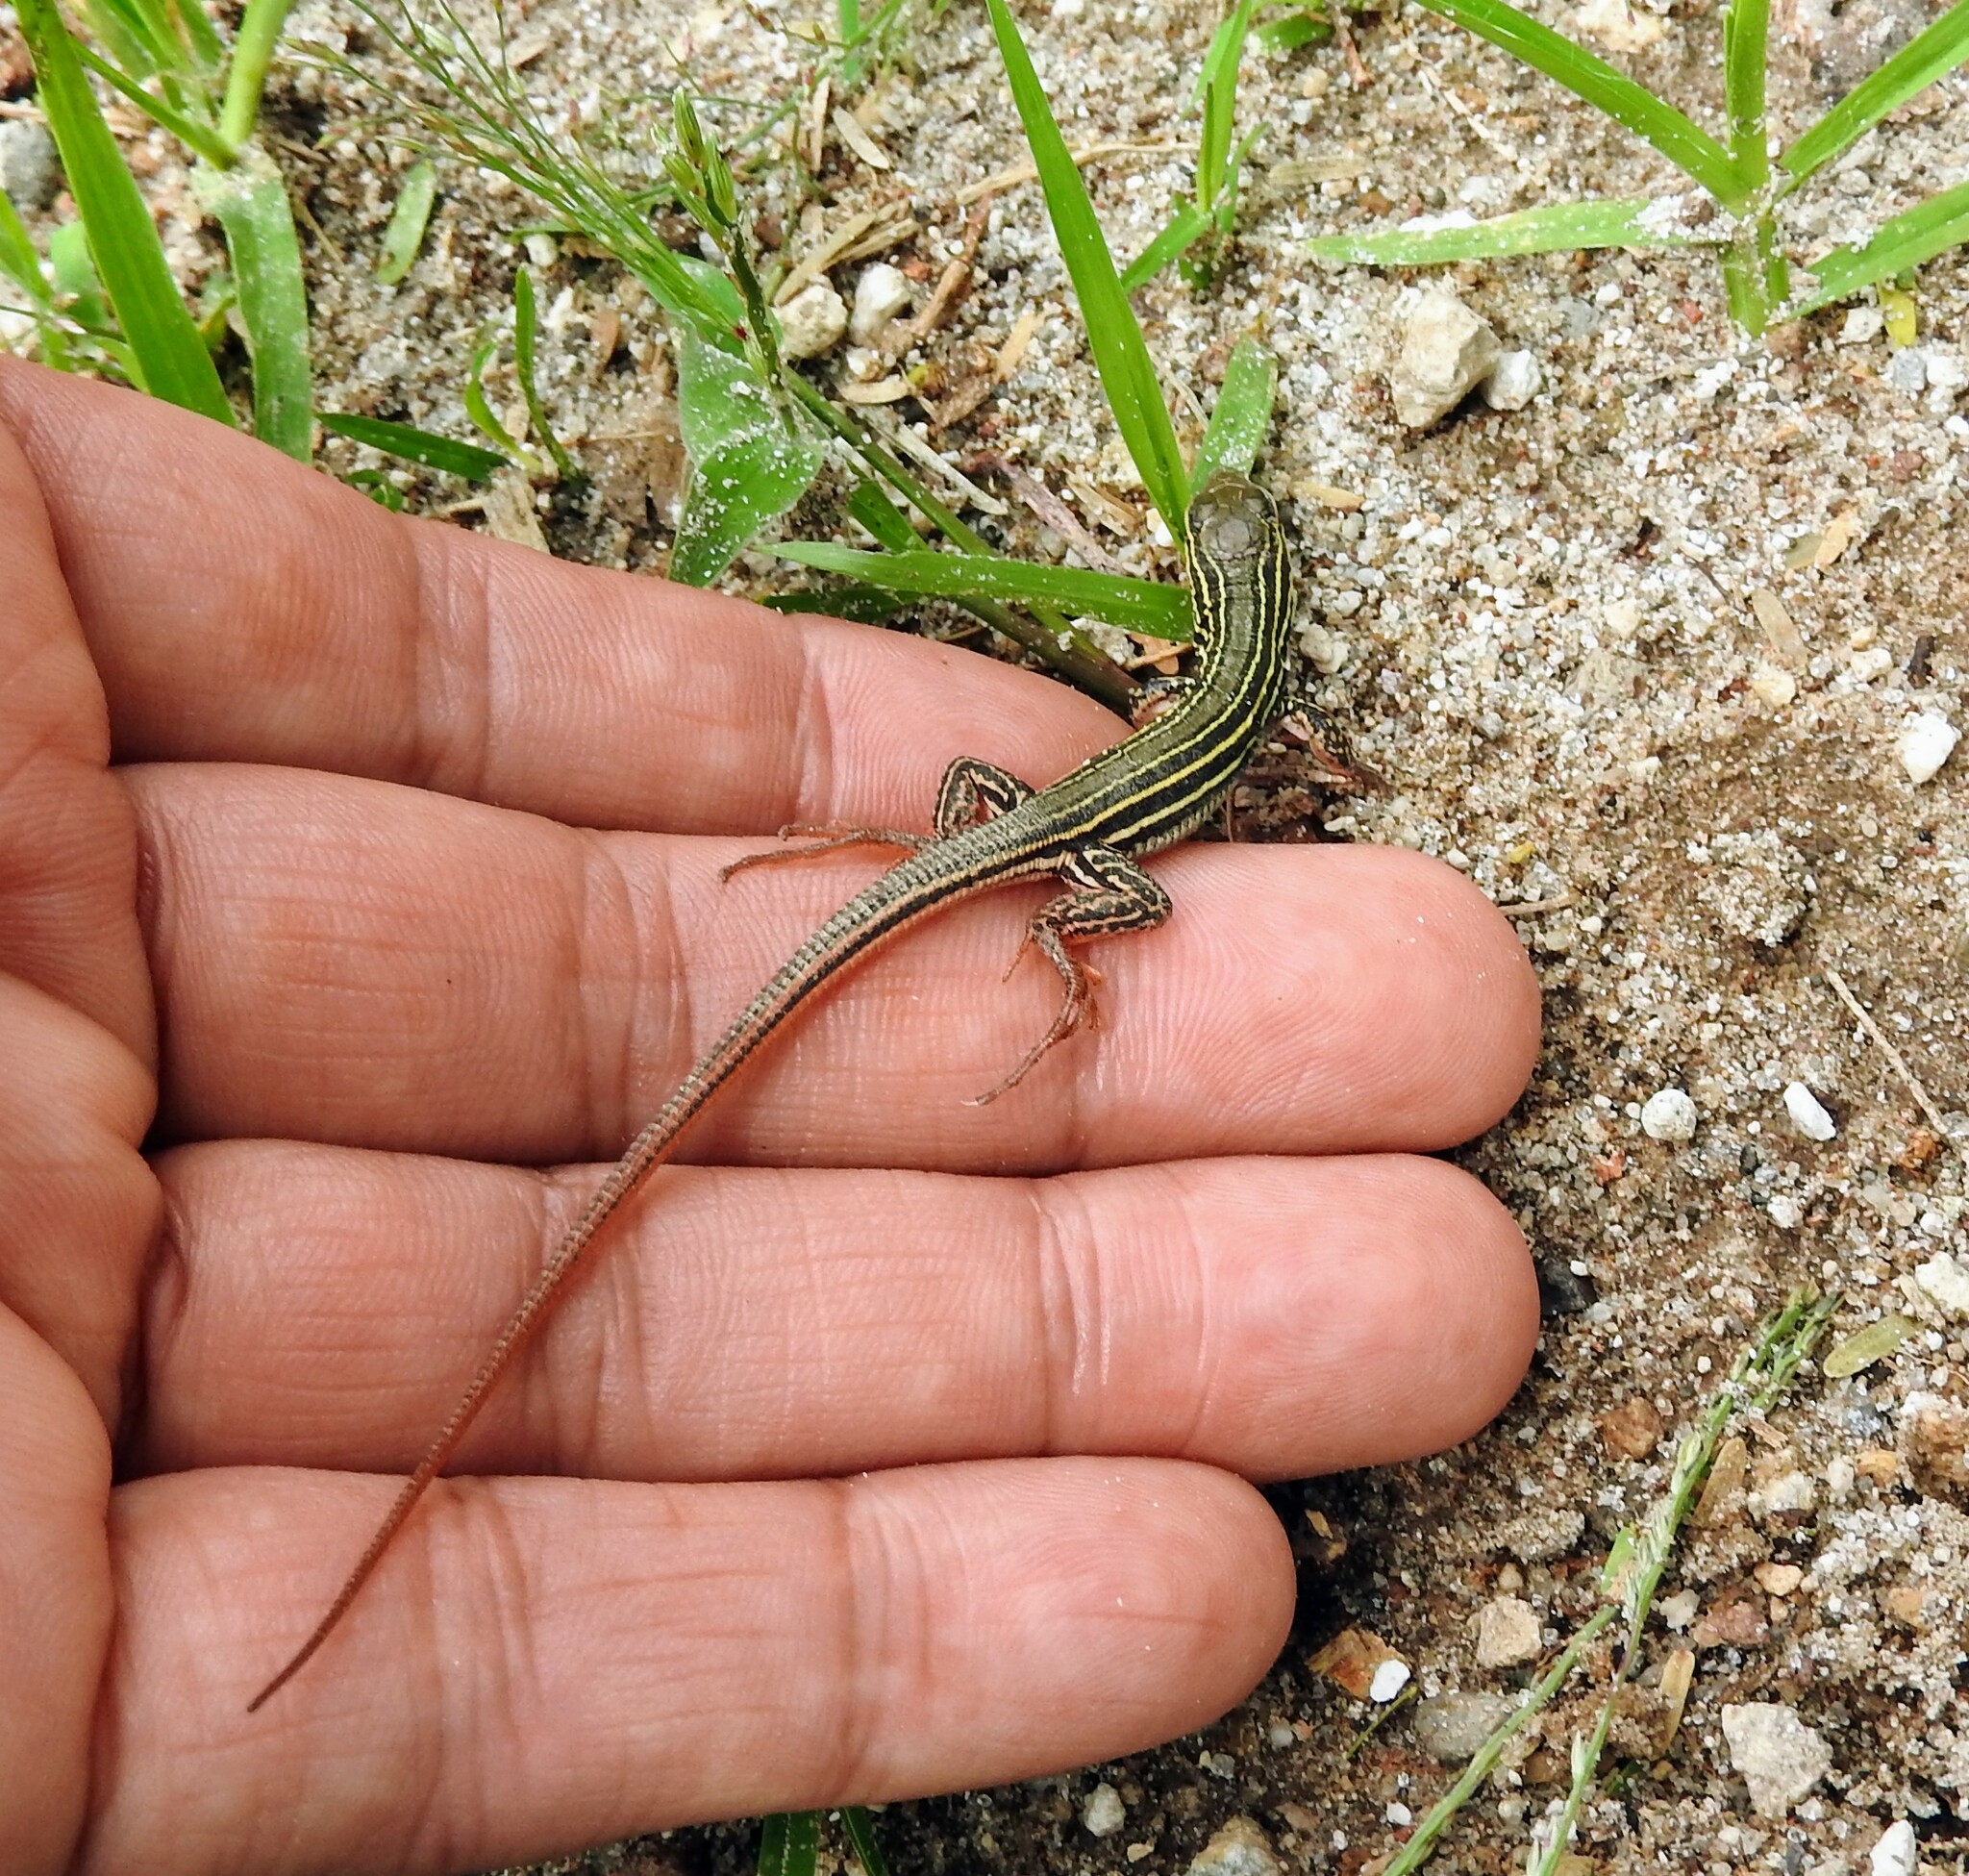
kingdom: Animalia
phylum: Chordata
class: Squamata
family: Teiidae
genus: Aspidoscelis
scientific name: Aspidoscelis gularis
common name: Eastern spotted whiptail
